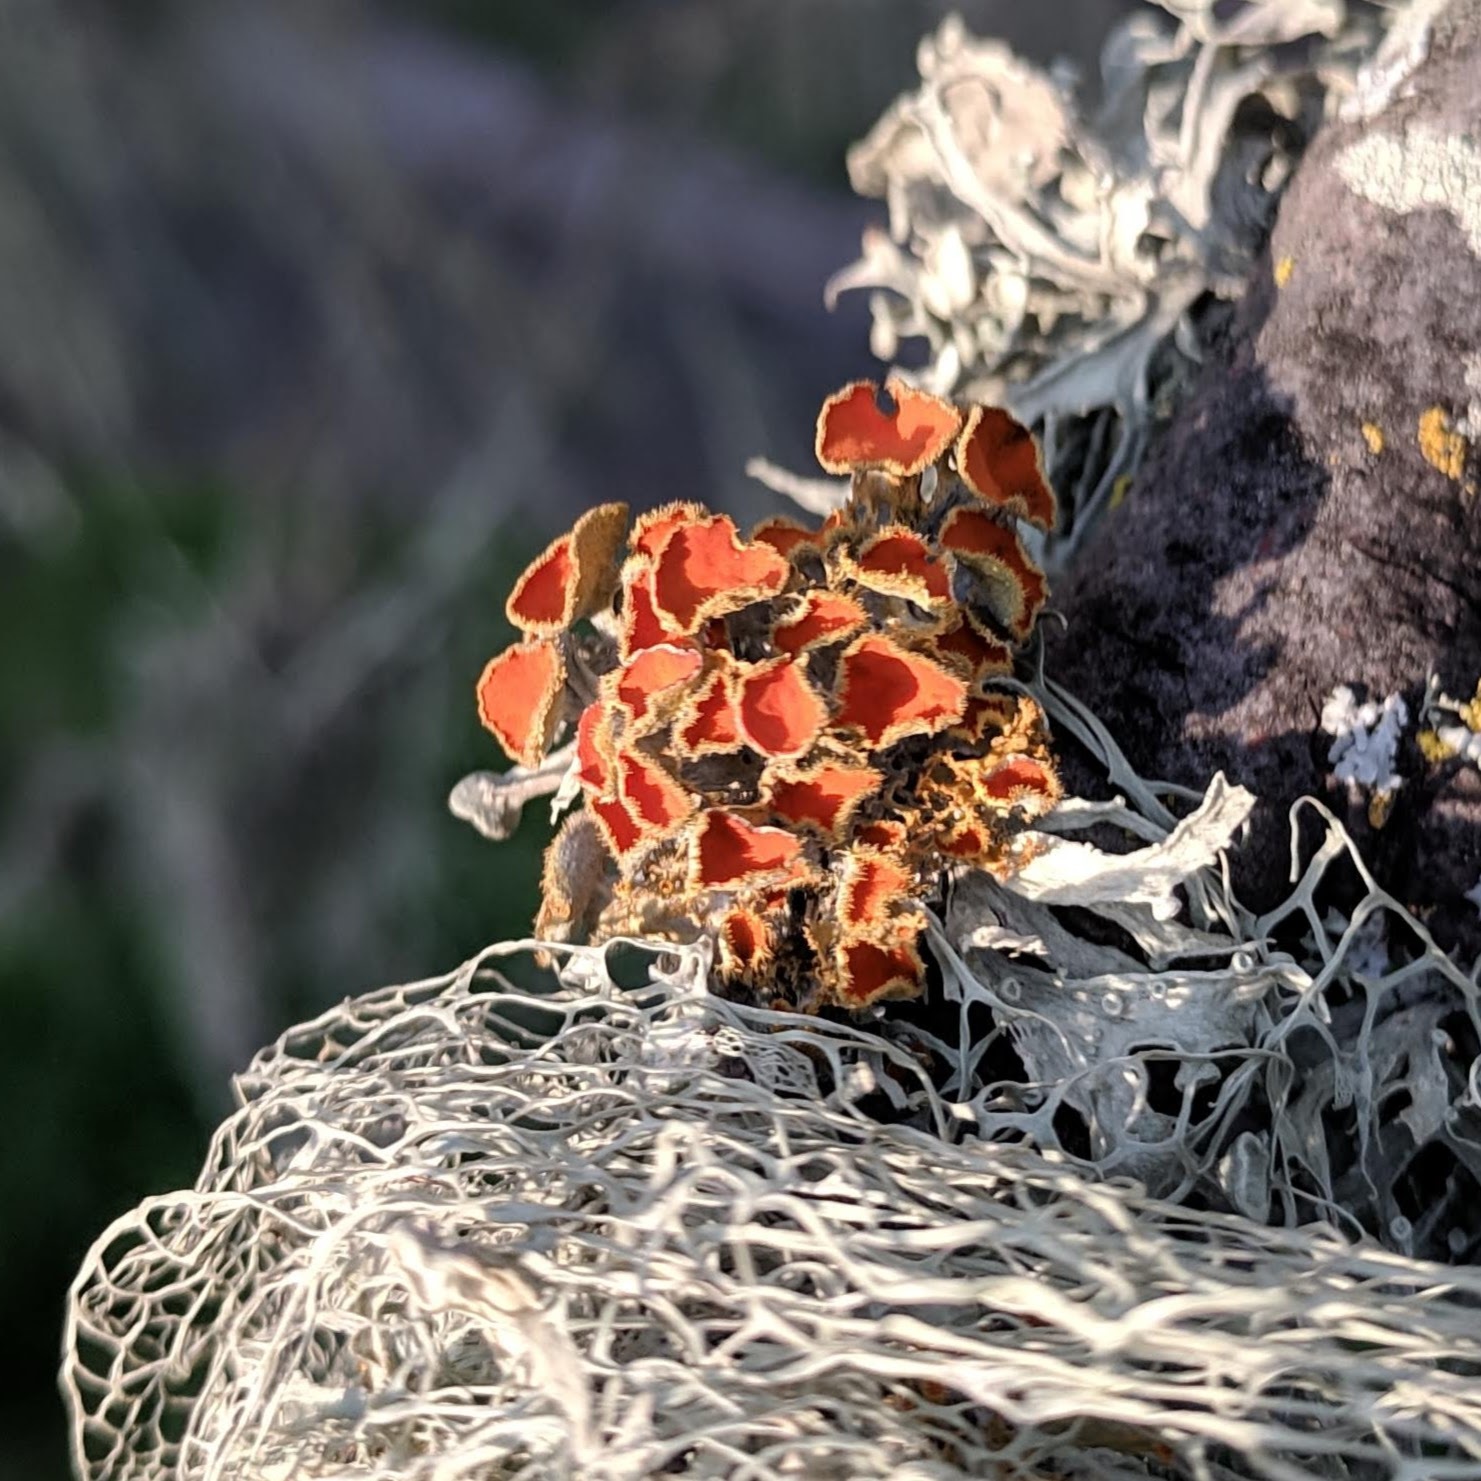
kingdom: Fungi
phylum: Ascomycota
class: Lecanoromycetes
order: Teloschistales
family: Teloschistaceae
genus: Niorma
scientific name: Niorma chrysophthalma
